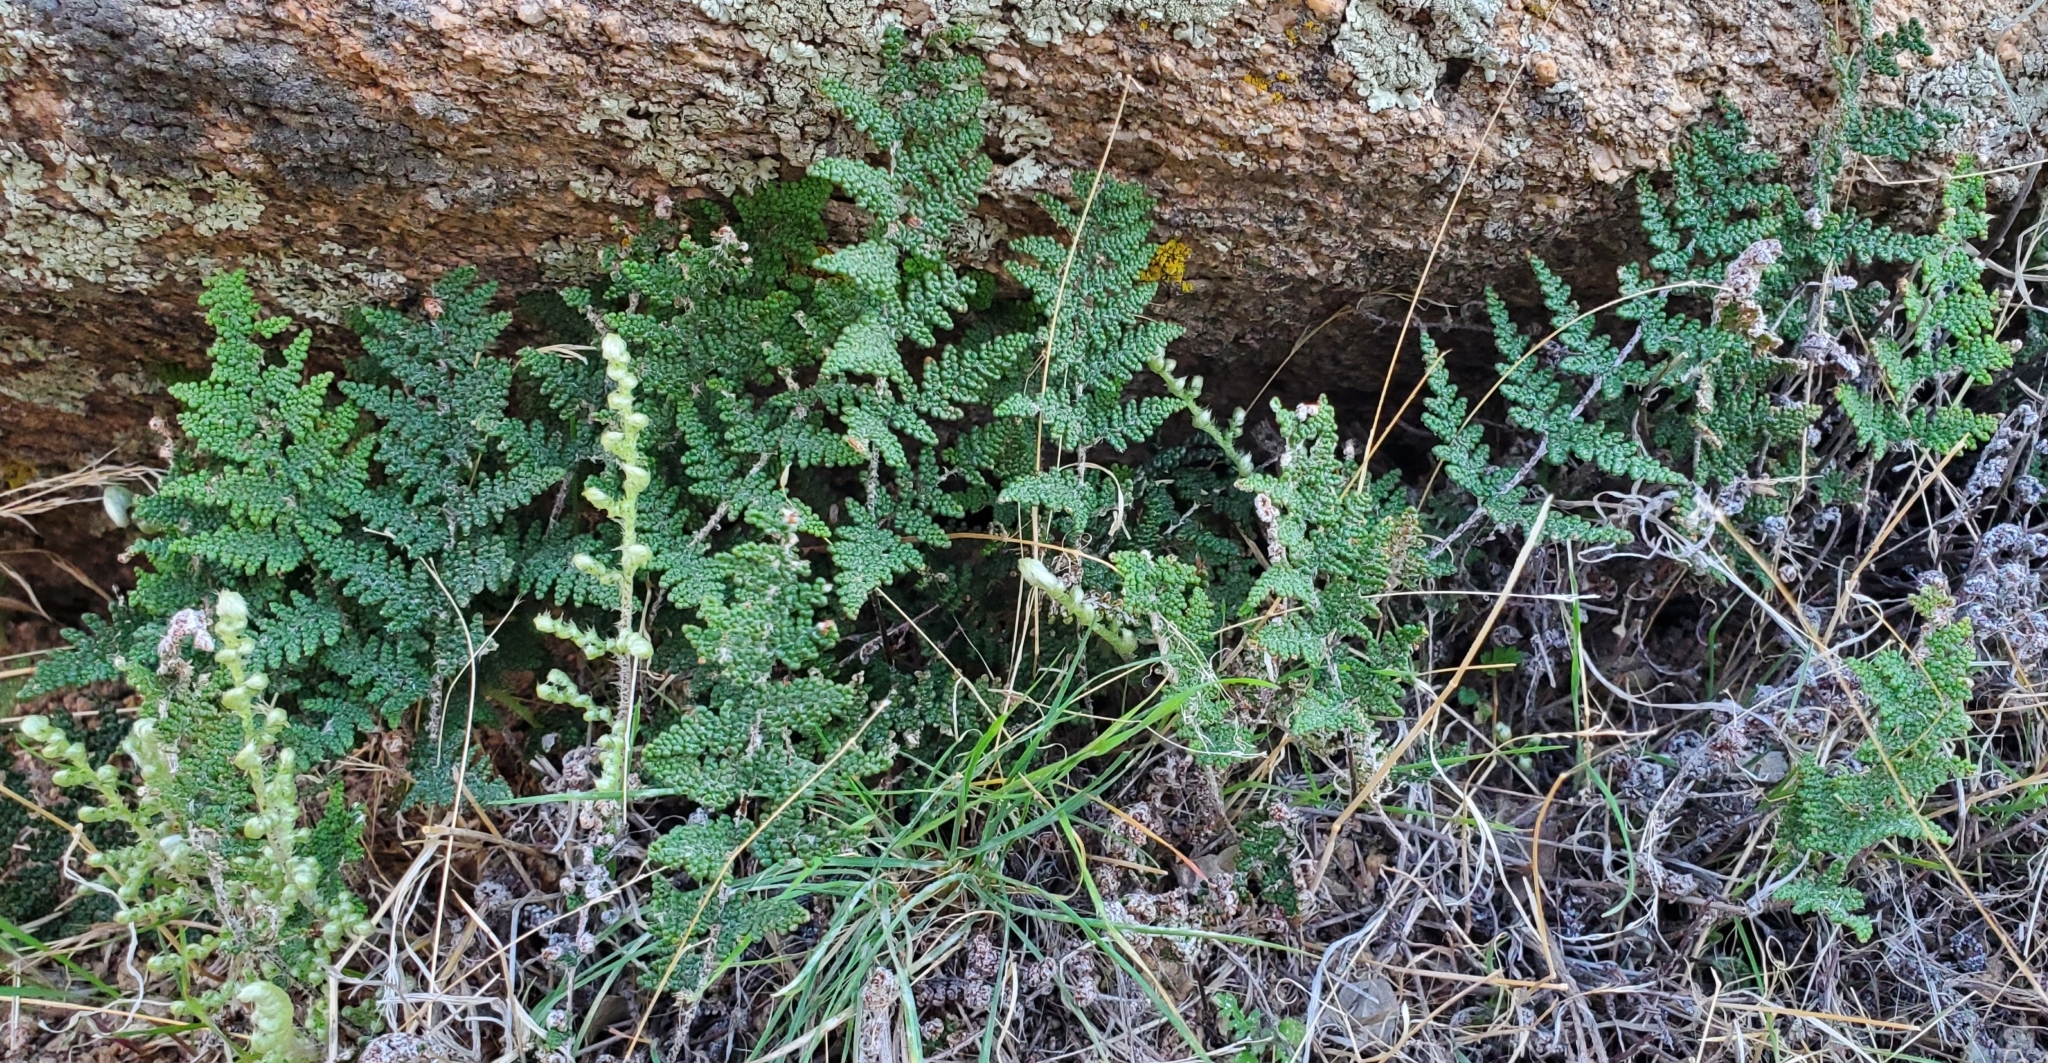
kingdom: Plantae
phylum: Tracheophyta
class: Polypodiopsida
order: Polypodiales
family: Pteridaceae
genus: Myriopteris
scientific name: Myriopteris covillei
